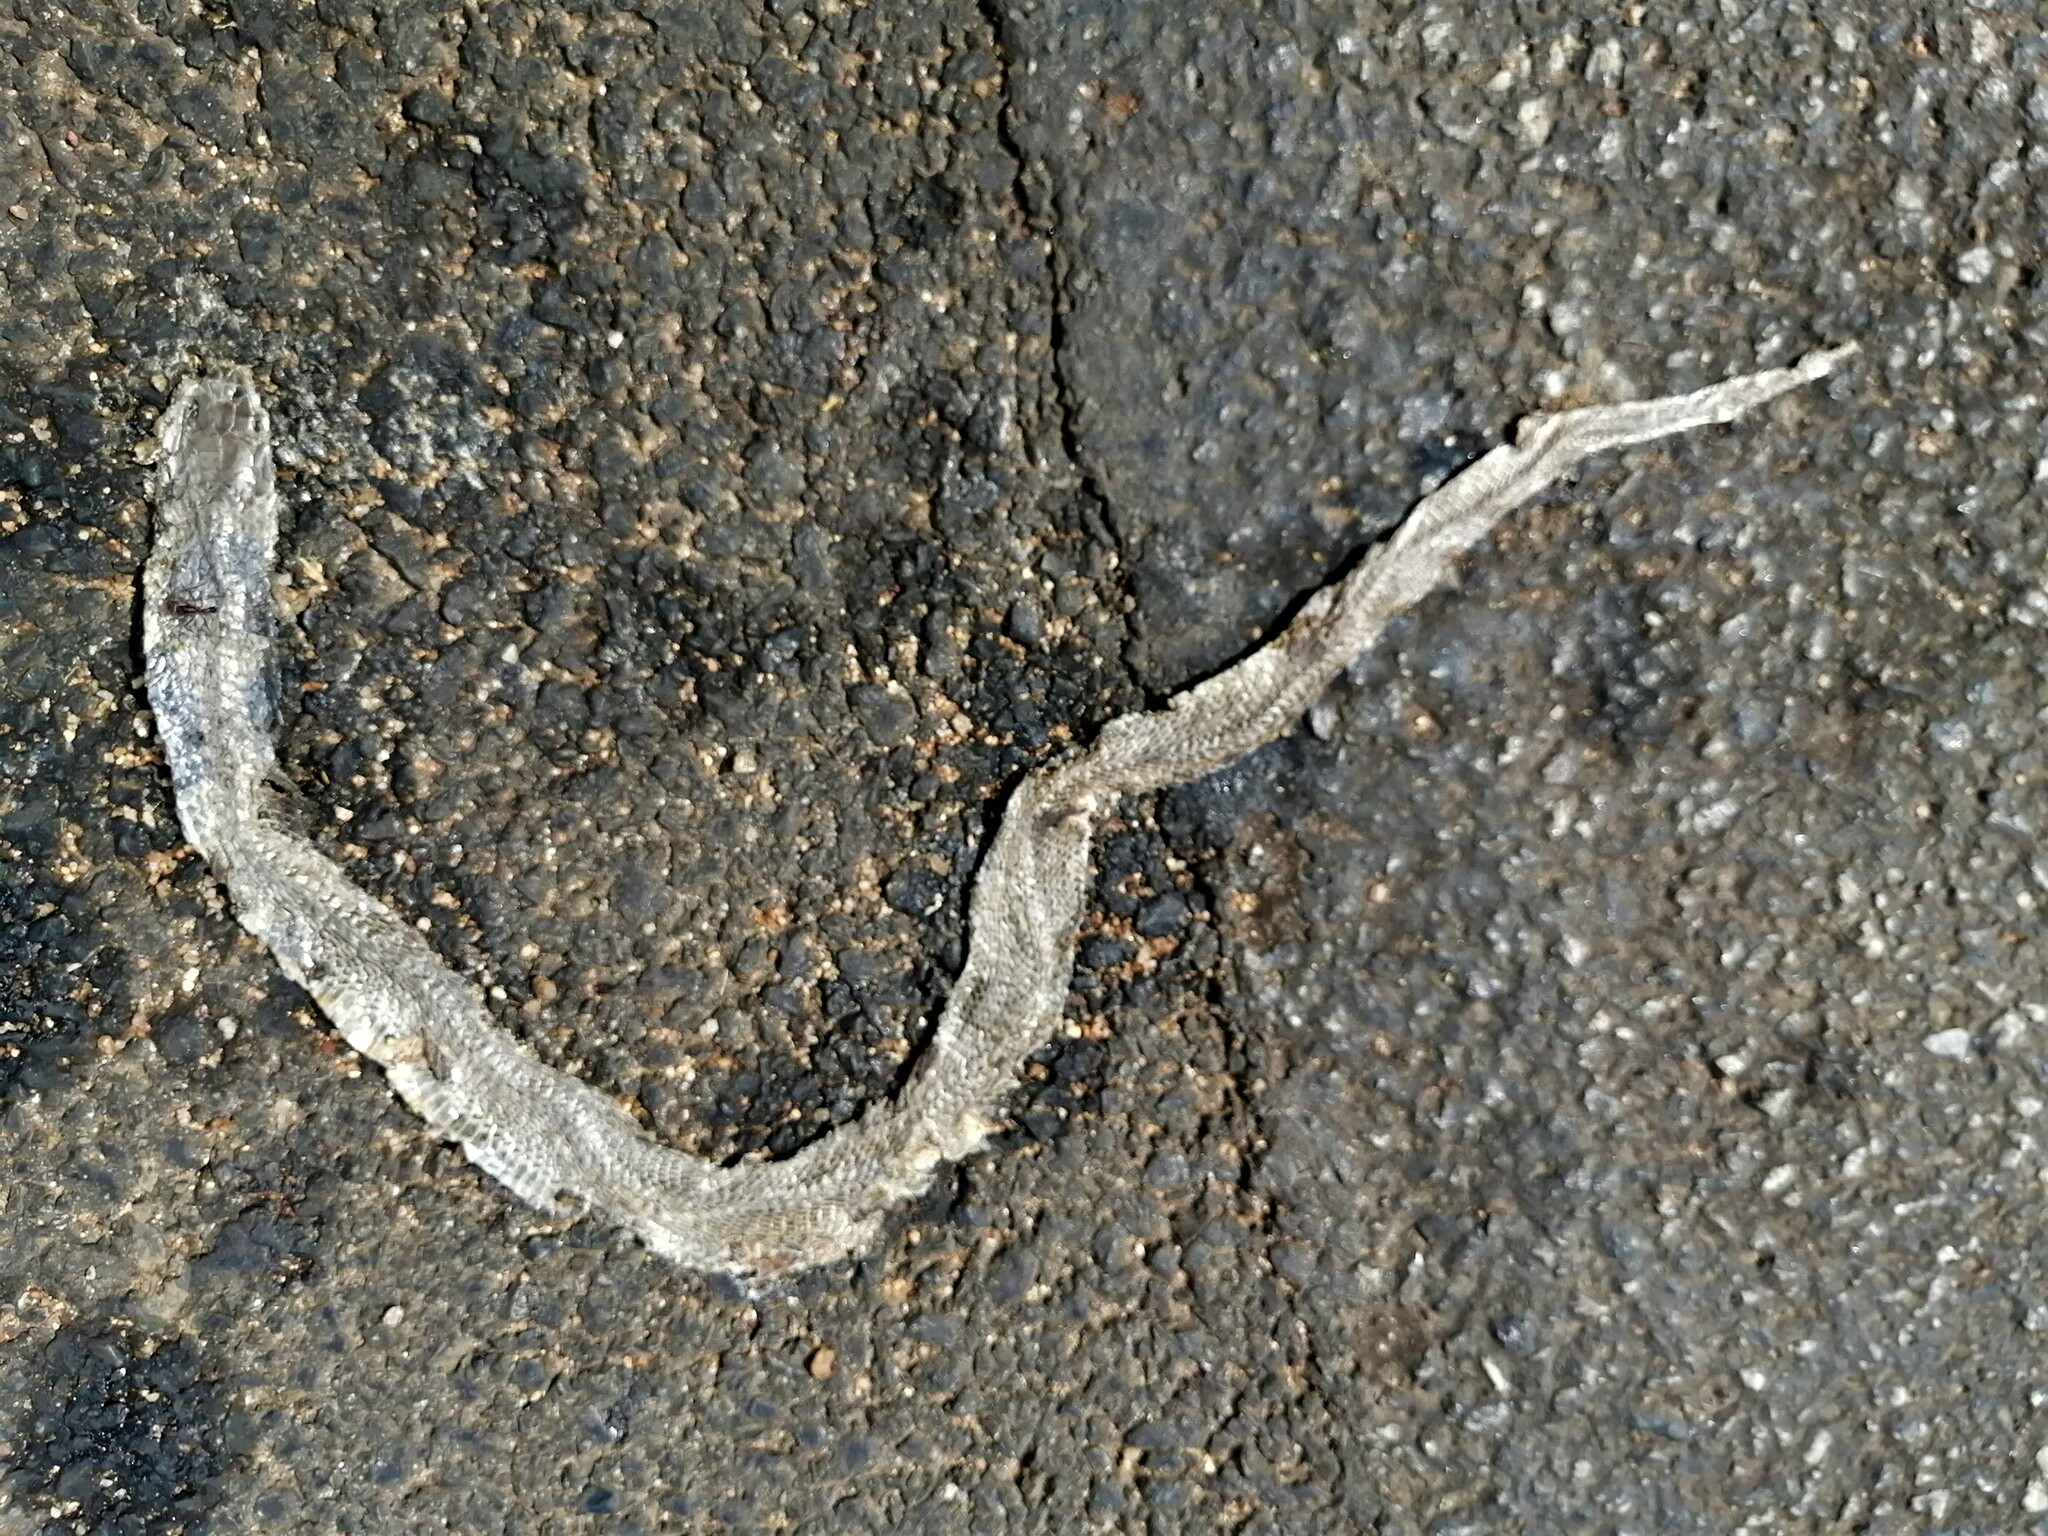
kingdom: Animalia
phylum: Chordata
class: Squamata
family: Elapidae
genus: Naja
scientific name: Naja mossambica
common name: Mozambique spitting cobra
